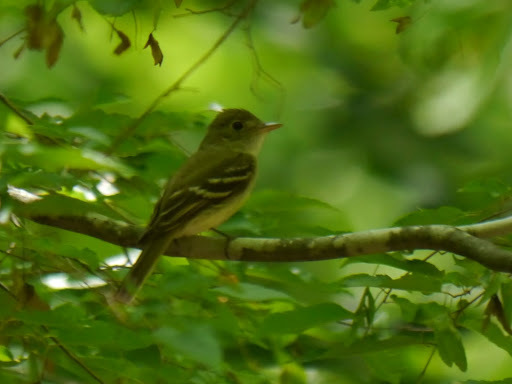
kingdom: Animalia
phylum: Chordata
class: Aves
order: Passeriformes
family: Tyrannidae
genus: Empidonax
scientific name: Empidonax virescens
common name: Acadian flycatcher
